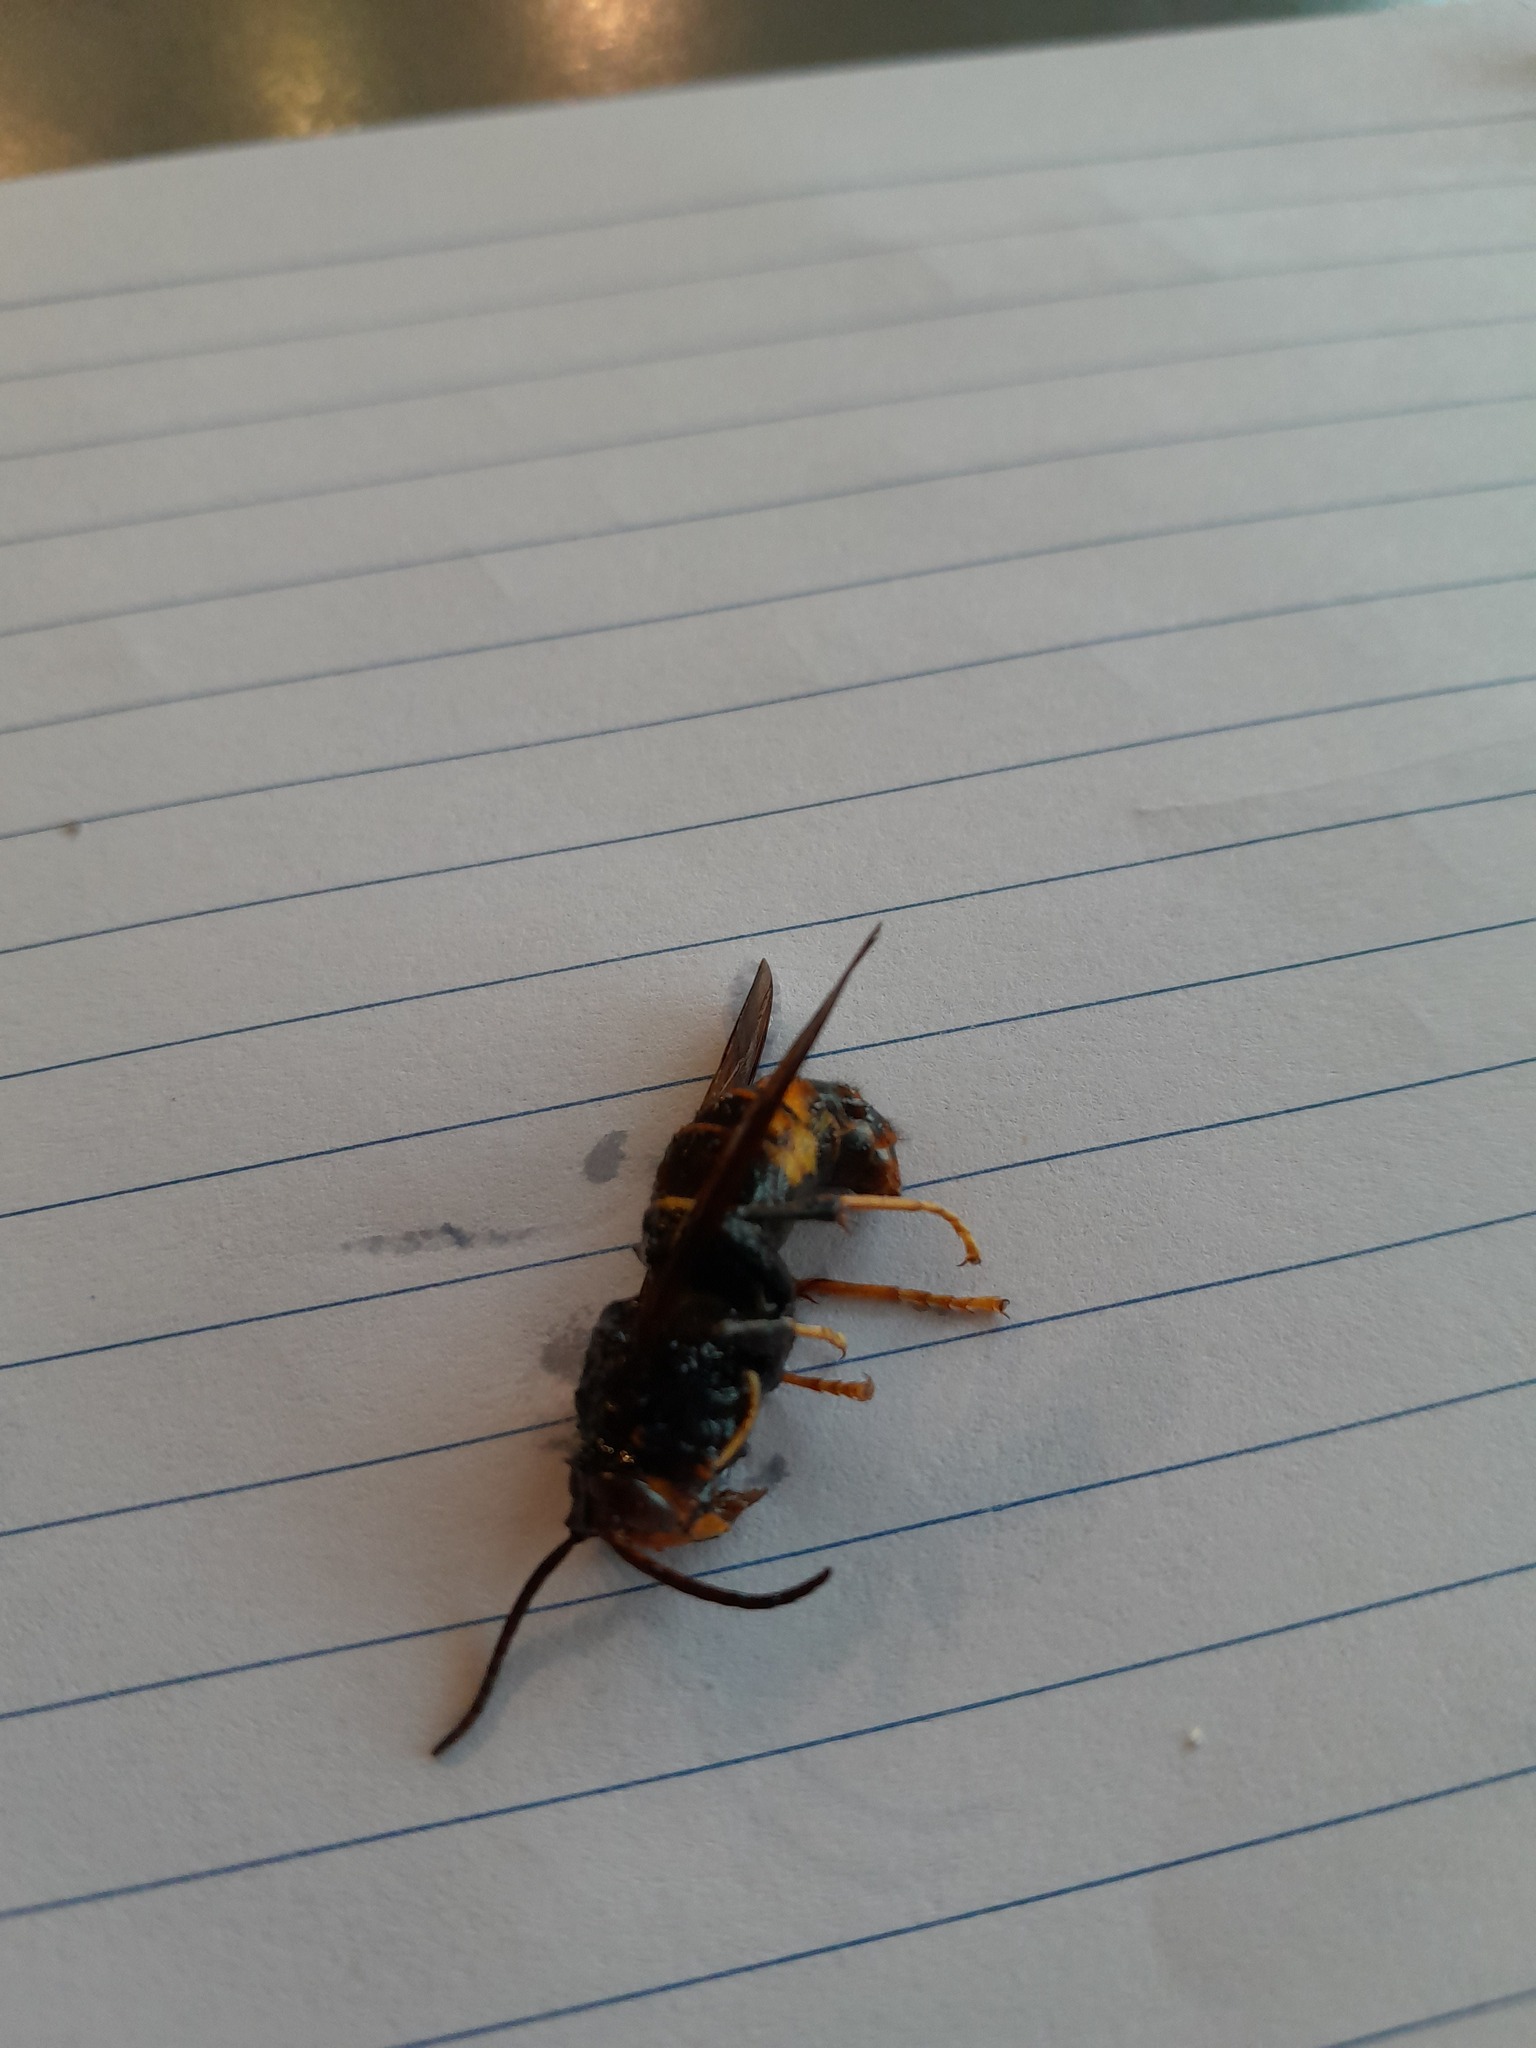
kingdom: Animalia
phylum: Arthropoda
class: Insecta
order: Hymenoptera
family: Vespidae
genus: Vespa
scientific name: Vespa velutina
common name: Asian hornet
